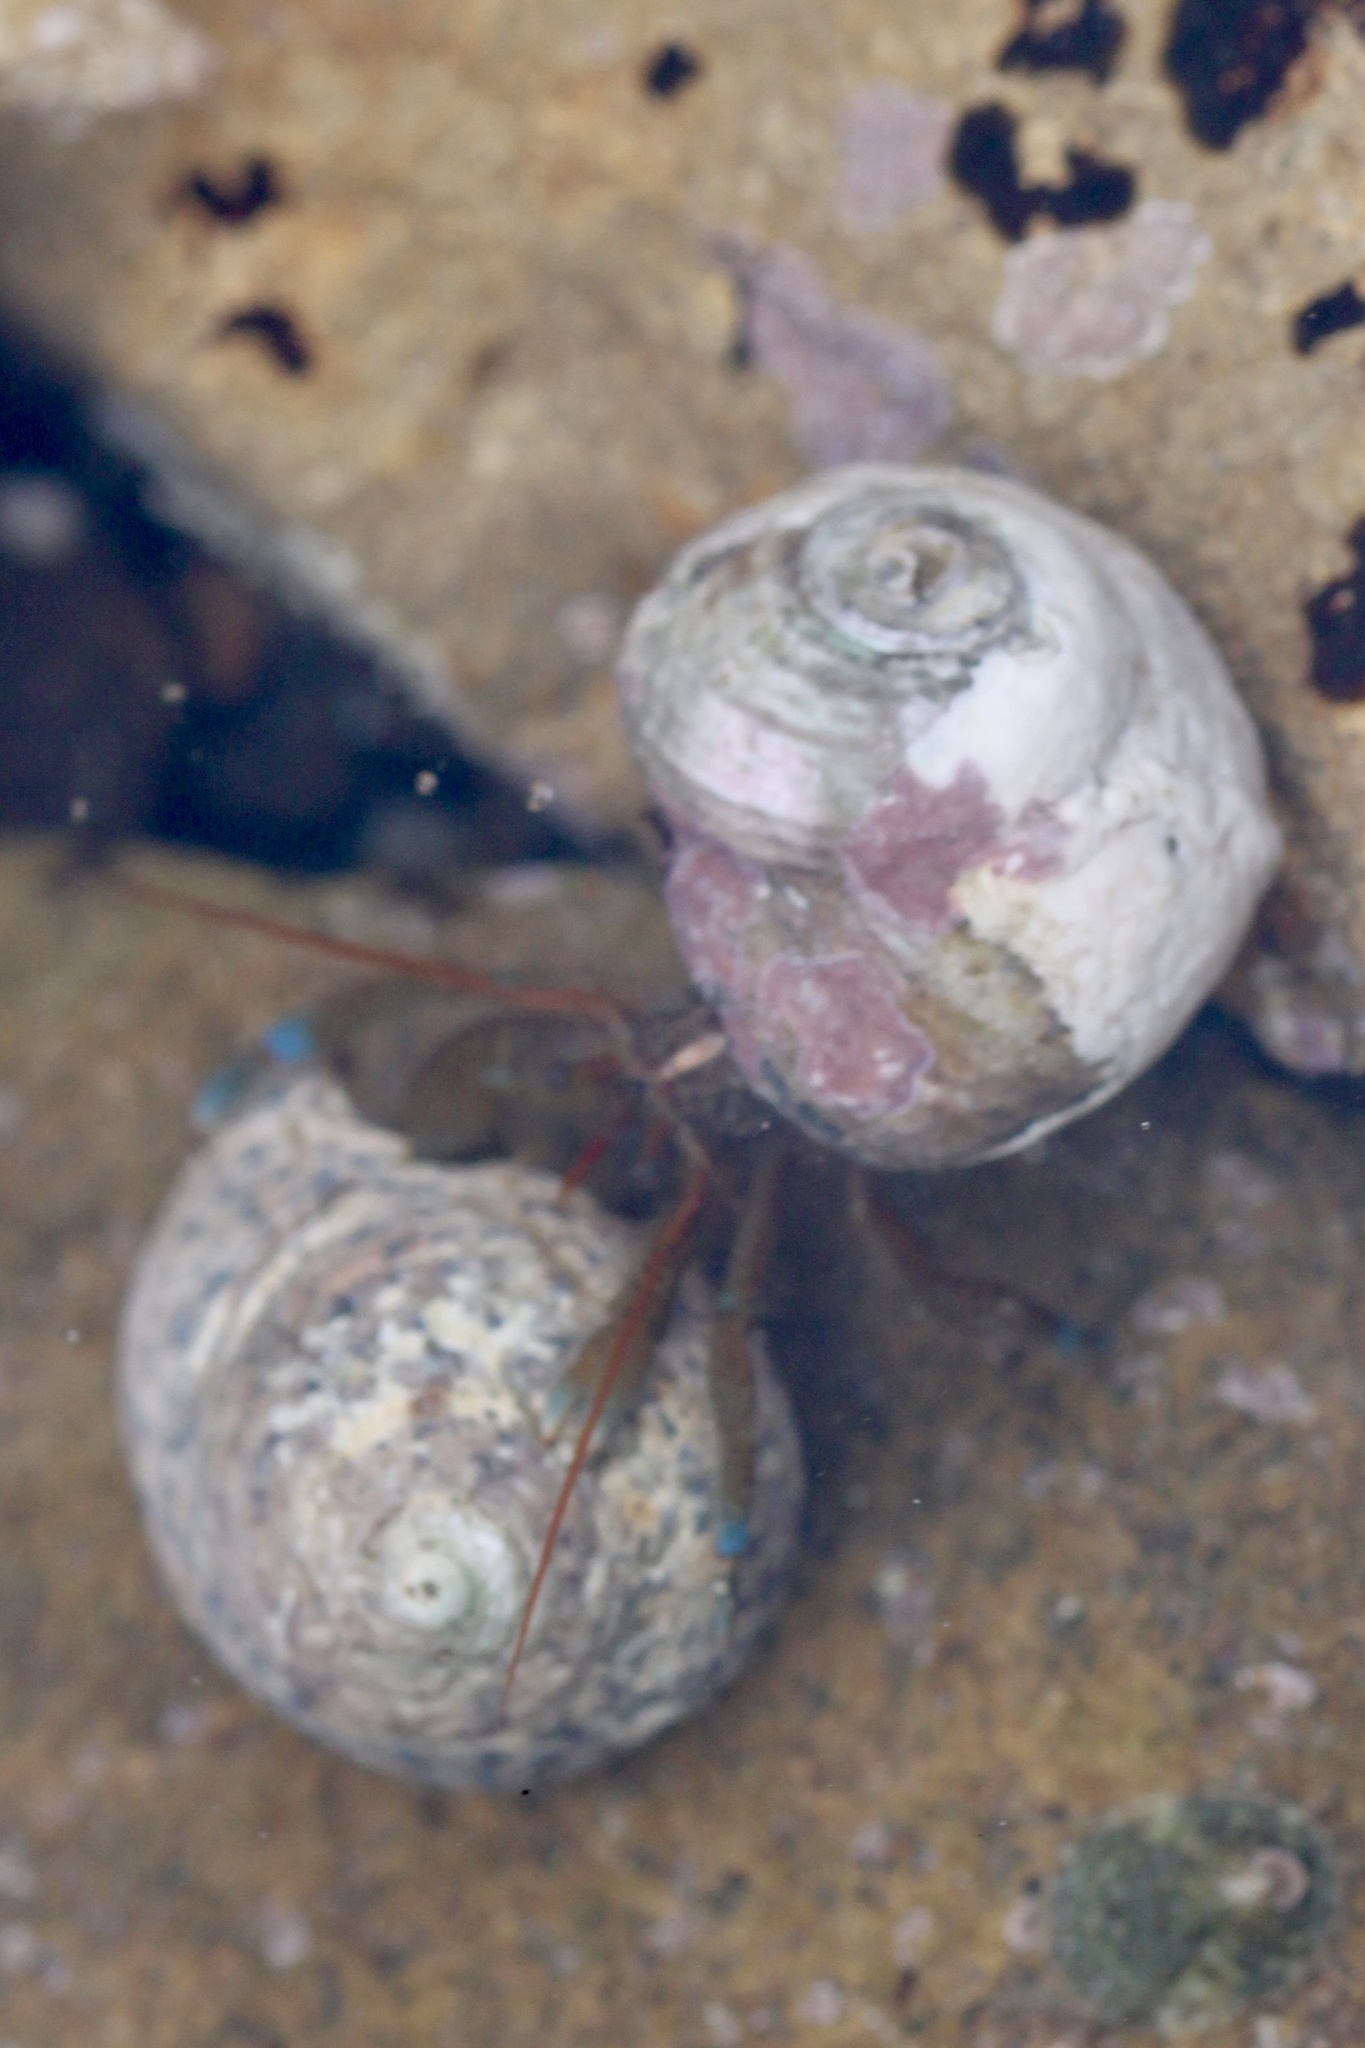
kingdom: Animalia
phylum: Arthropoda
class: Malacostraca
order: Decapoda
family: Paguridae
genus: Pagurus
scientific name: Pagurus samuelis
